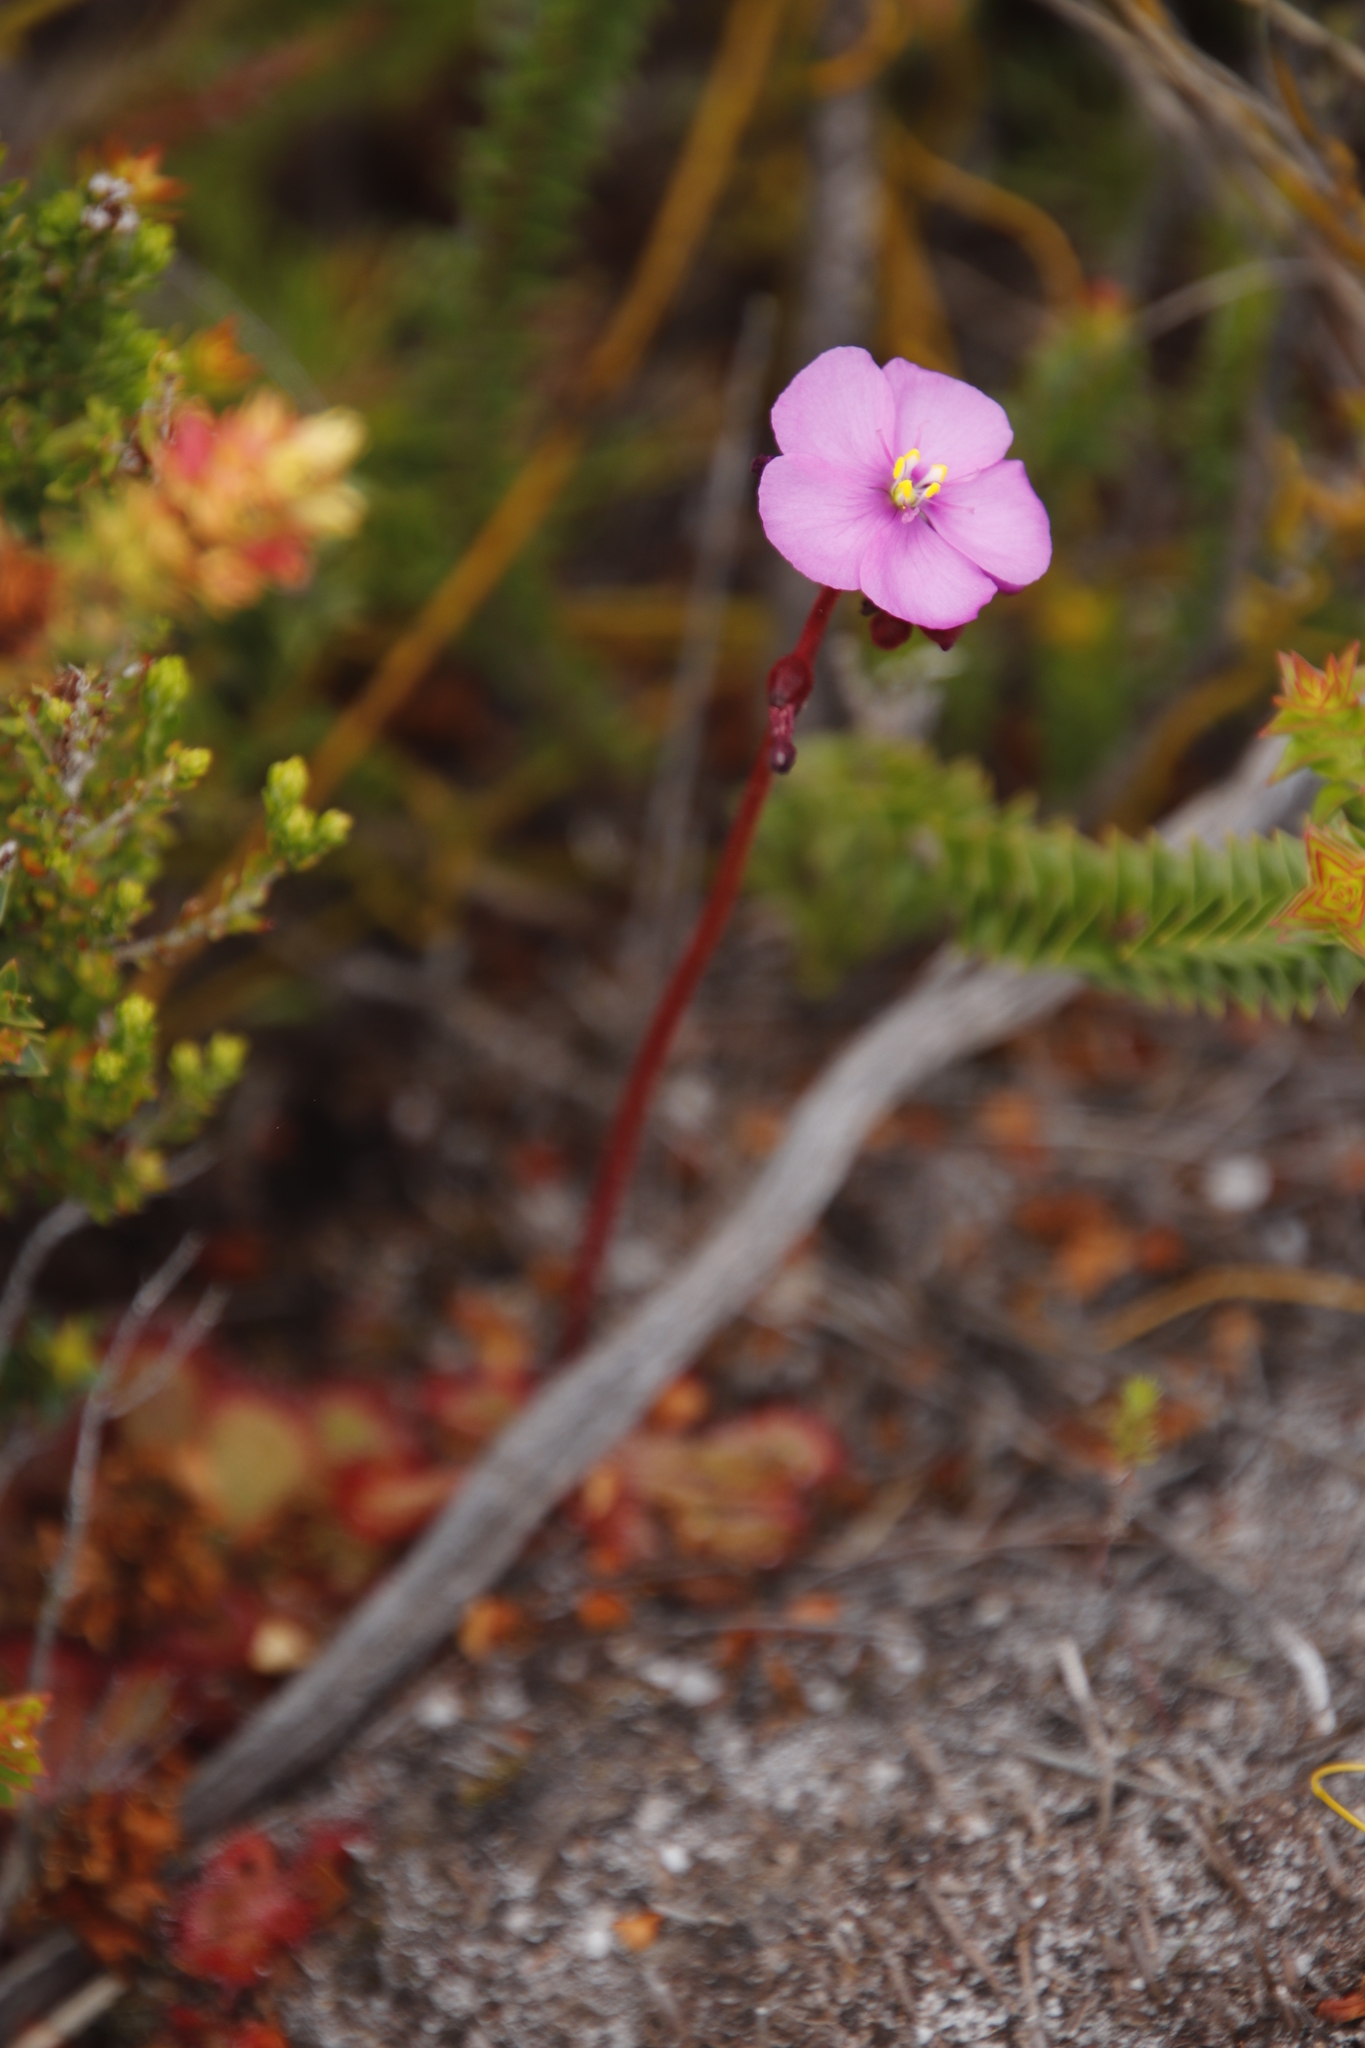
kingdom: Plantae
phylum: Tracheophyta
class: Magnoliopsida
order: Caryophyllales
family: Droseraceae
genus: Drosera
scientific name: Drosera cuneifolia
